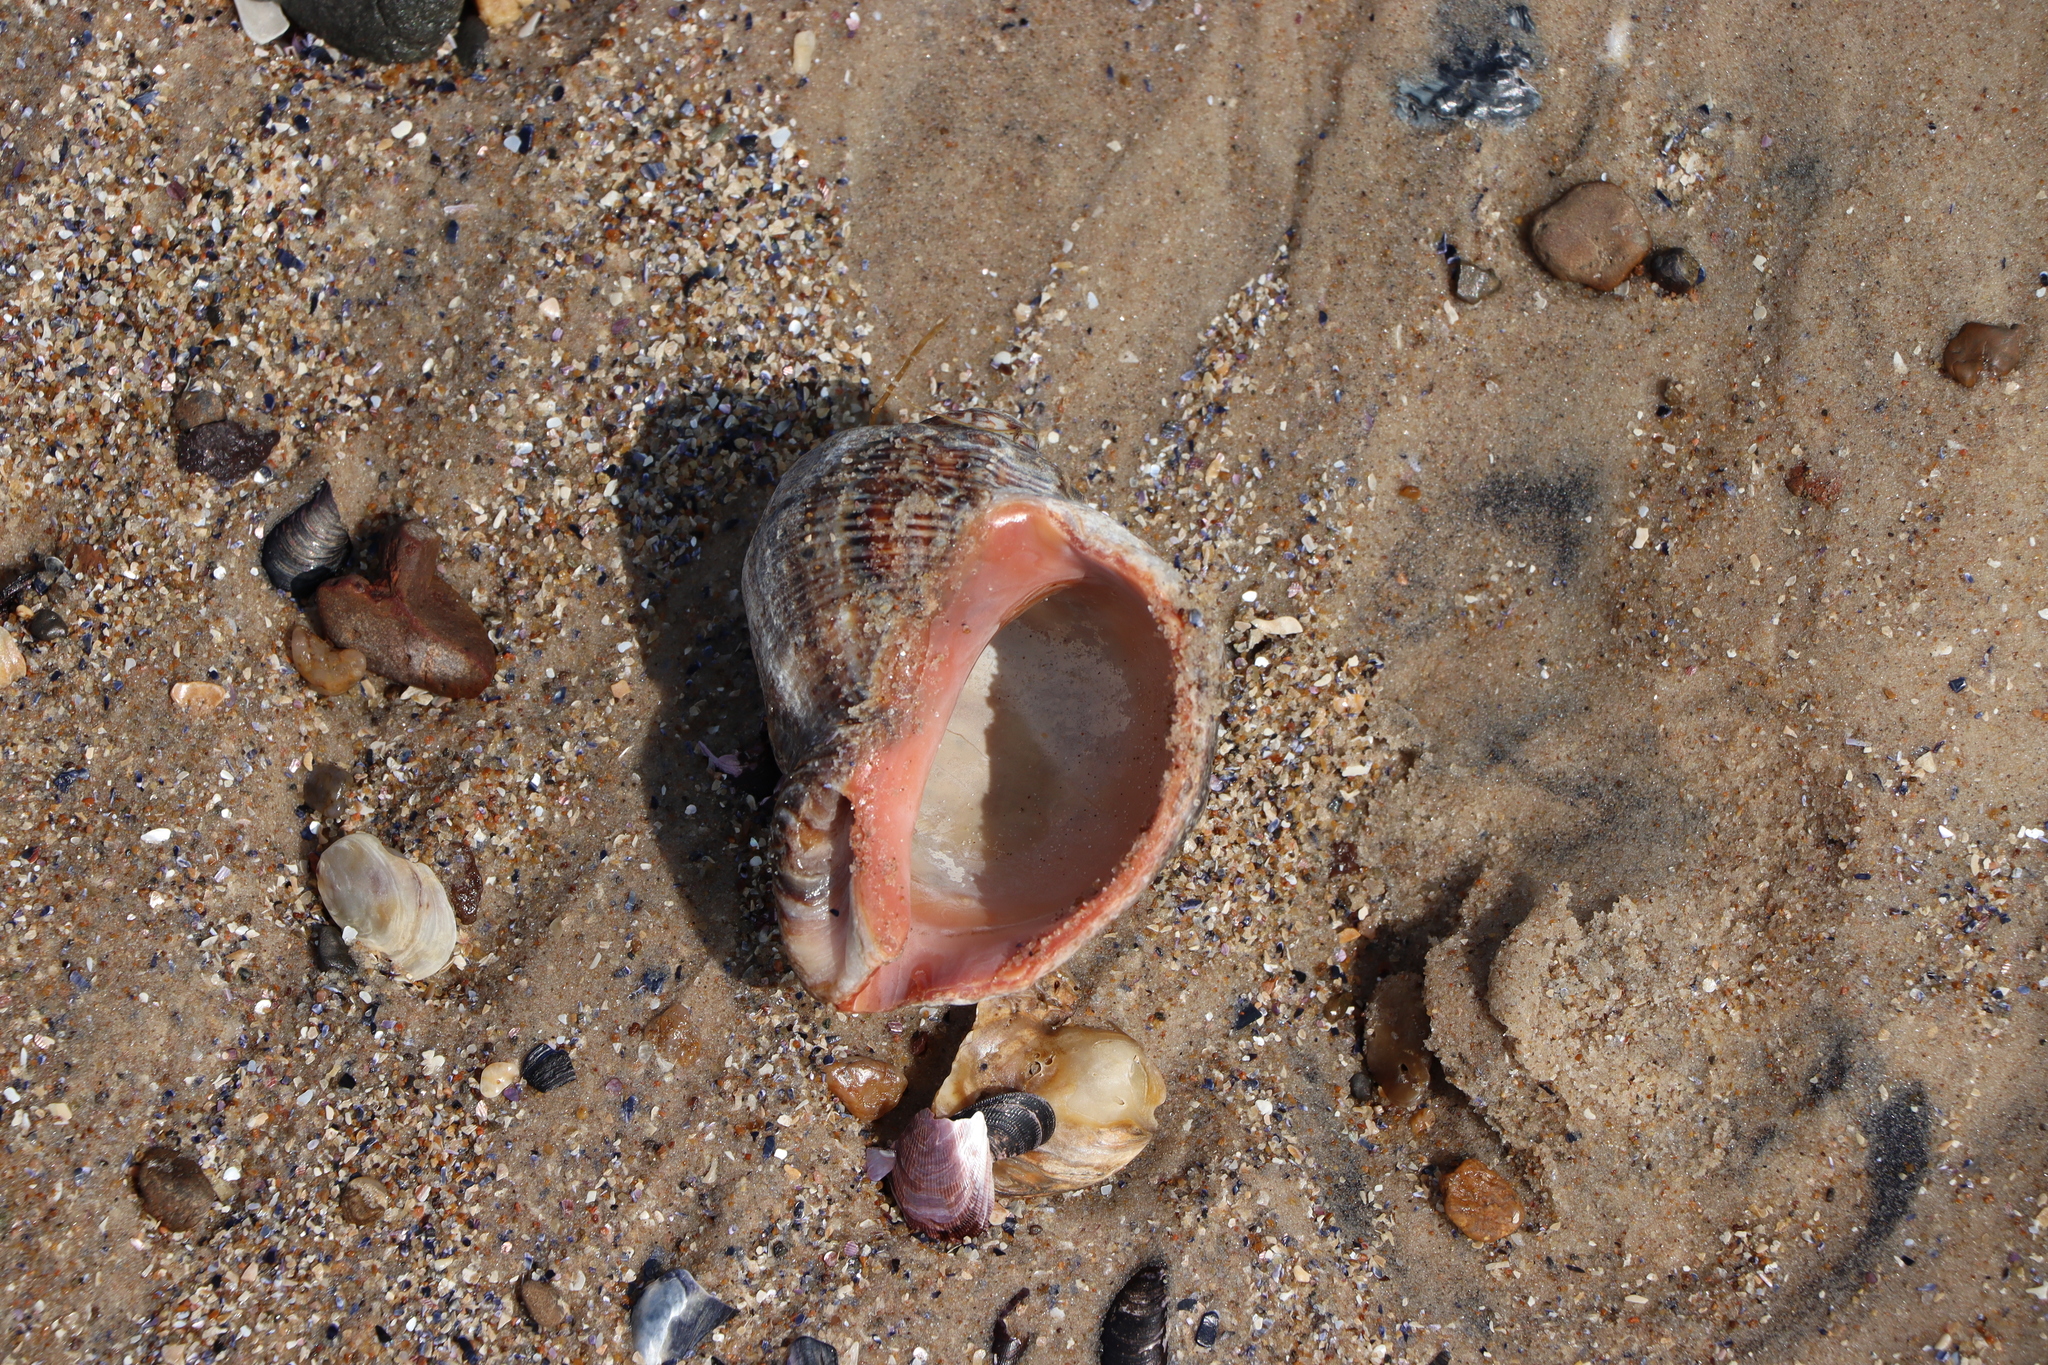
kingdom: Animalia
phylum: Mollusca
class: Gastropoda
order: Neogastropoda
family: Muricidae
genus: Rapana
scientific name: Rapana venosa
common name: Veined rapa whelk
